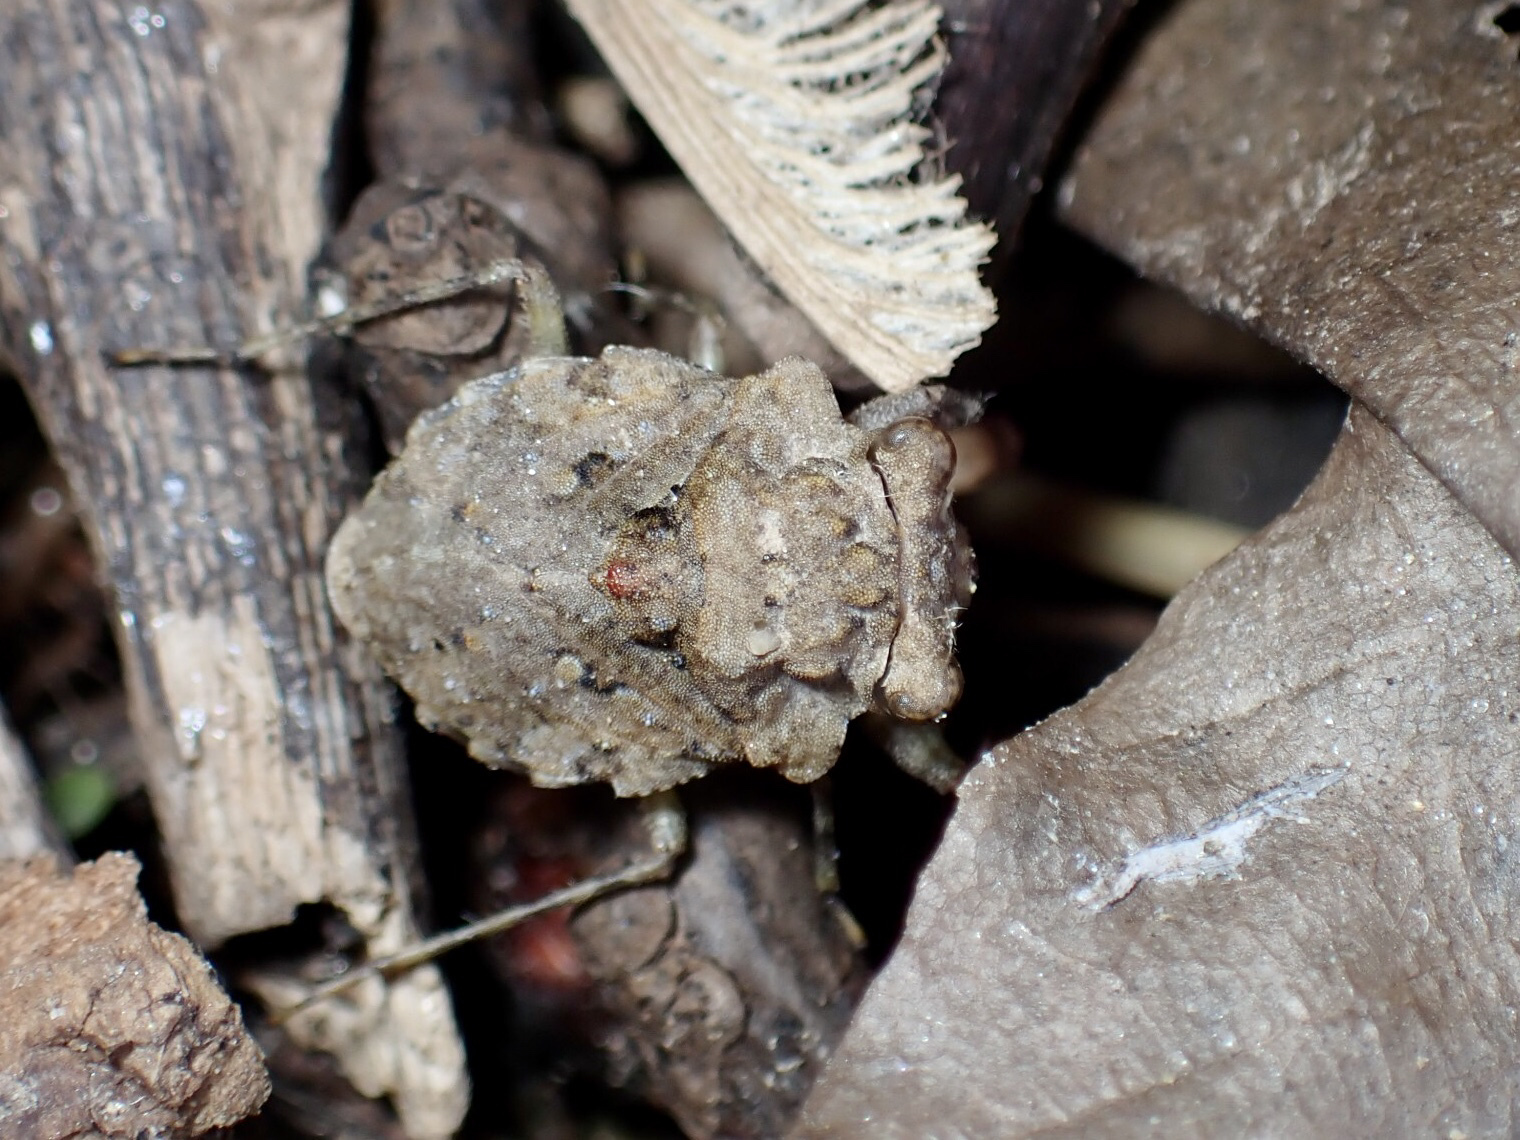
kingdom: Animalia
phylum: Arthropoda
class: Insecta
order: Hemiptera
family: Gelastocoridae
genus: Gelastocoris
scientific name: Gelastocoris oculatus
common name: Toad bug
